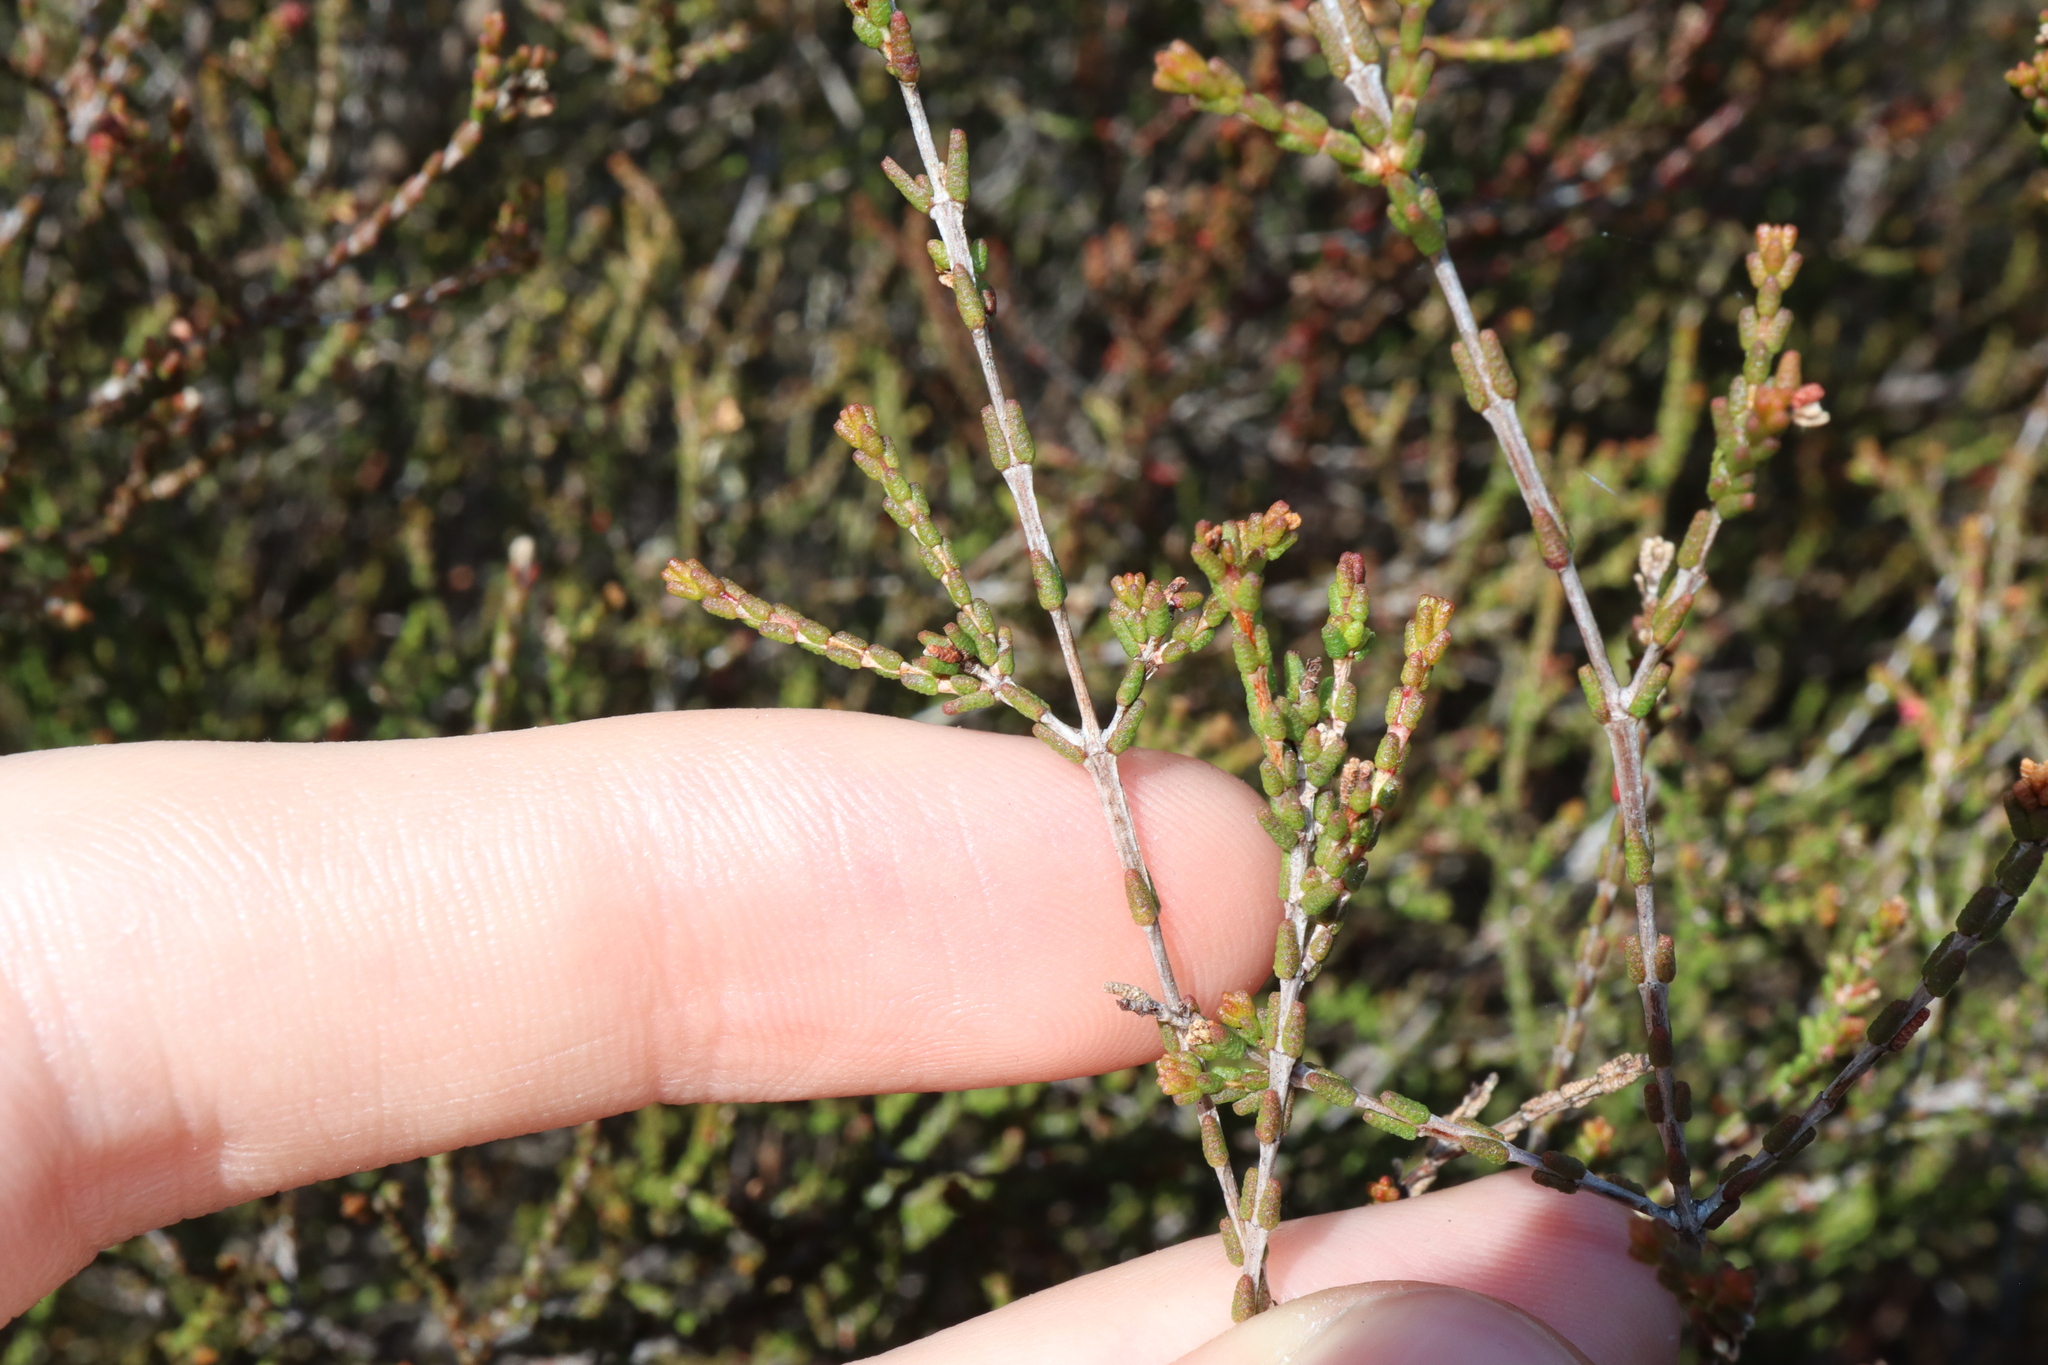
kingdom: Plantae
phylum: Tracheophyta
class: Magnoliopsida
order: Myrtales
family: Myrtaceae
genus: Baeckea
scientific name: Baeckea brevifolia
